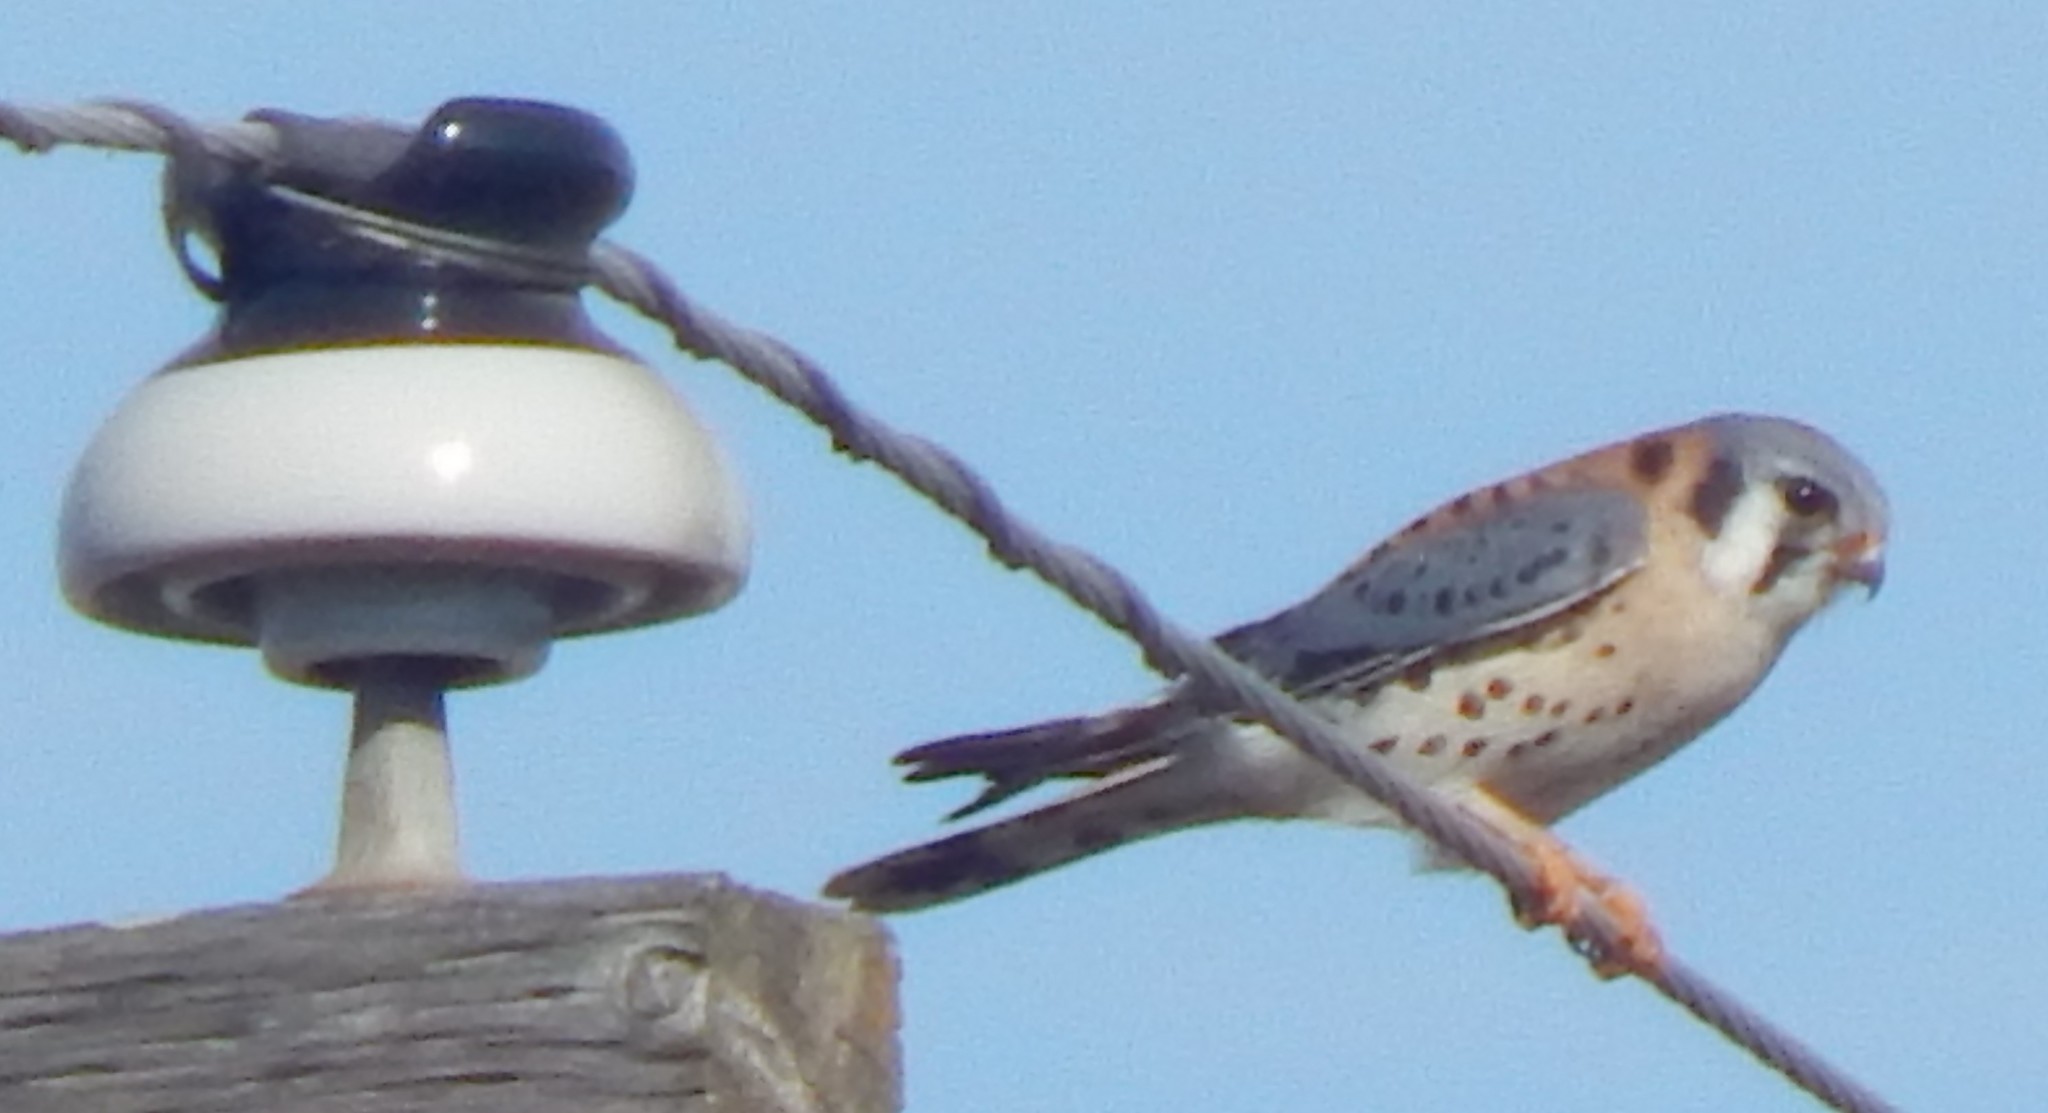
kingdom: Animalia
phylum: Chordata
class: Aves
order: Falconiformes
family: Falconidae
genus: Falco
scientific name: Falco sparverius
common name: American kestrel
